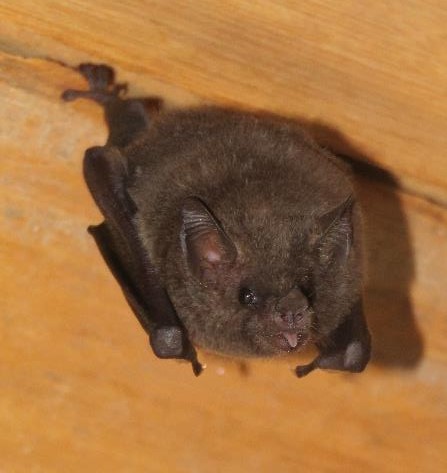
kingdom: Animalia
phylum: Chordata
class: Mammalia
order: Chiroptera
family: Phyllostomidae
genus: Glossophaga
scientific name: Glossophaga soricina
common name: Pallas's long-tongued bat
